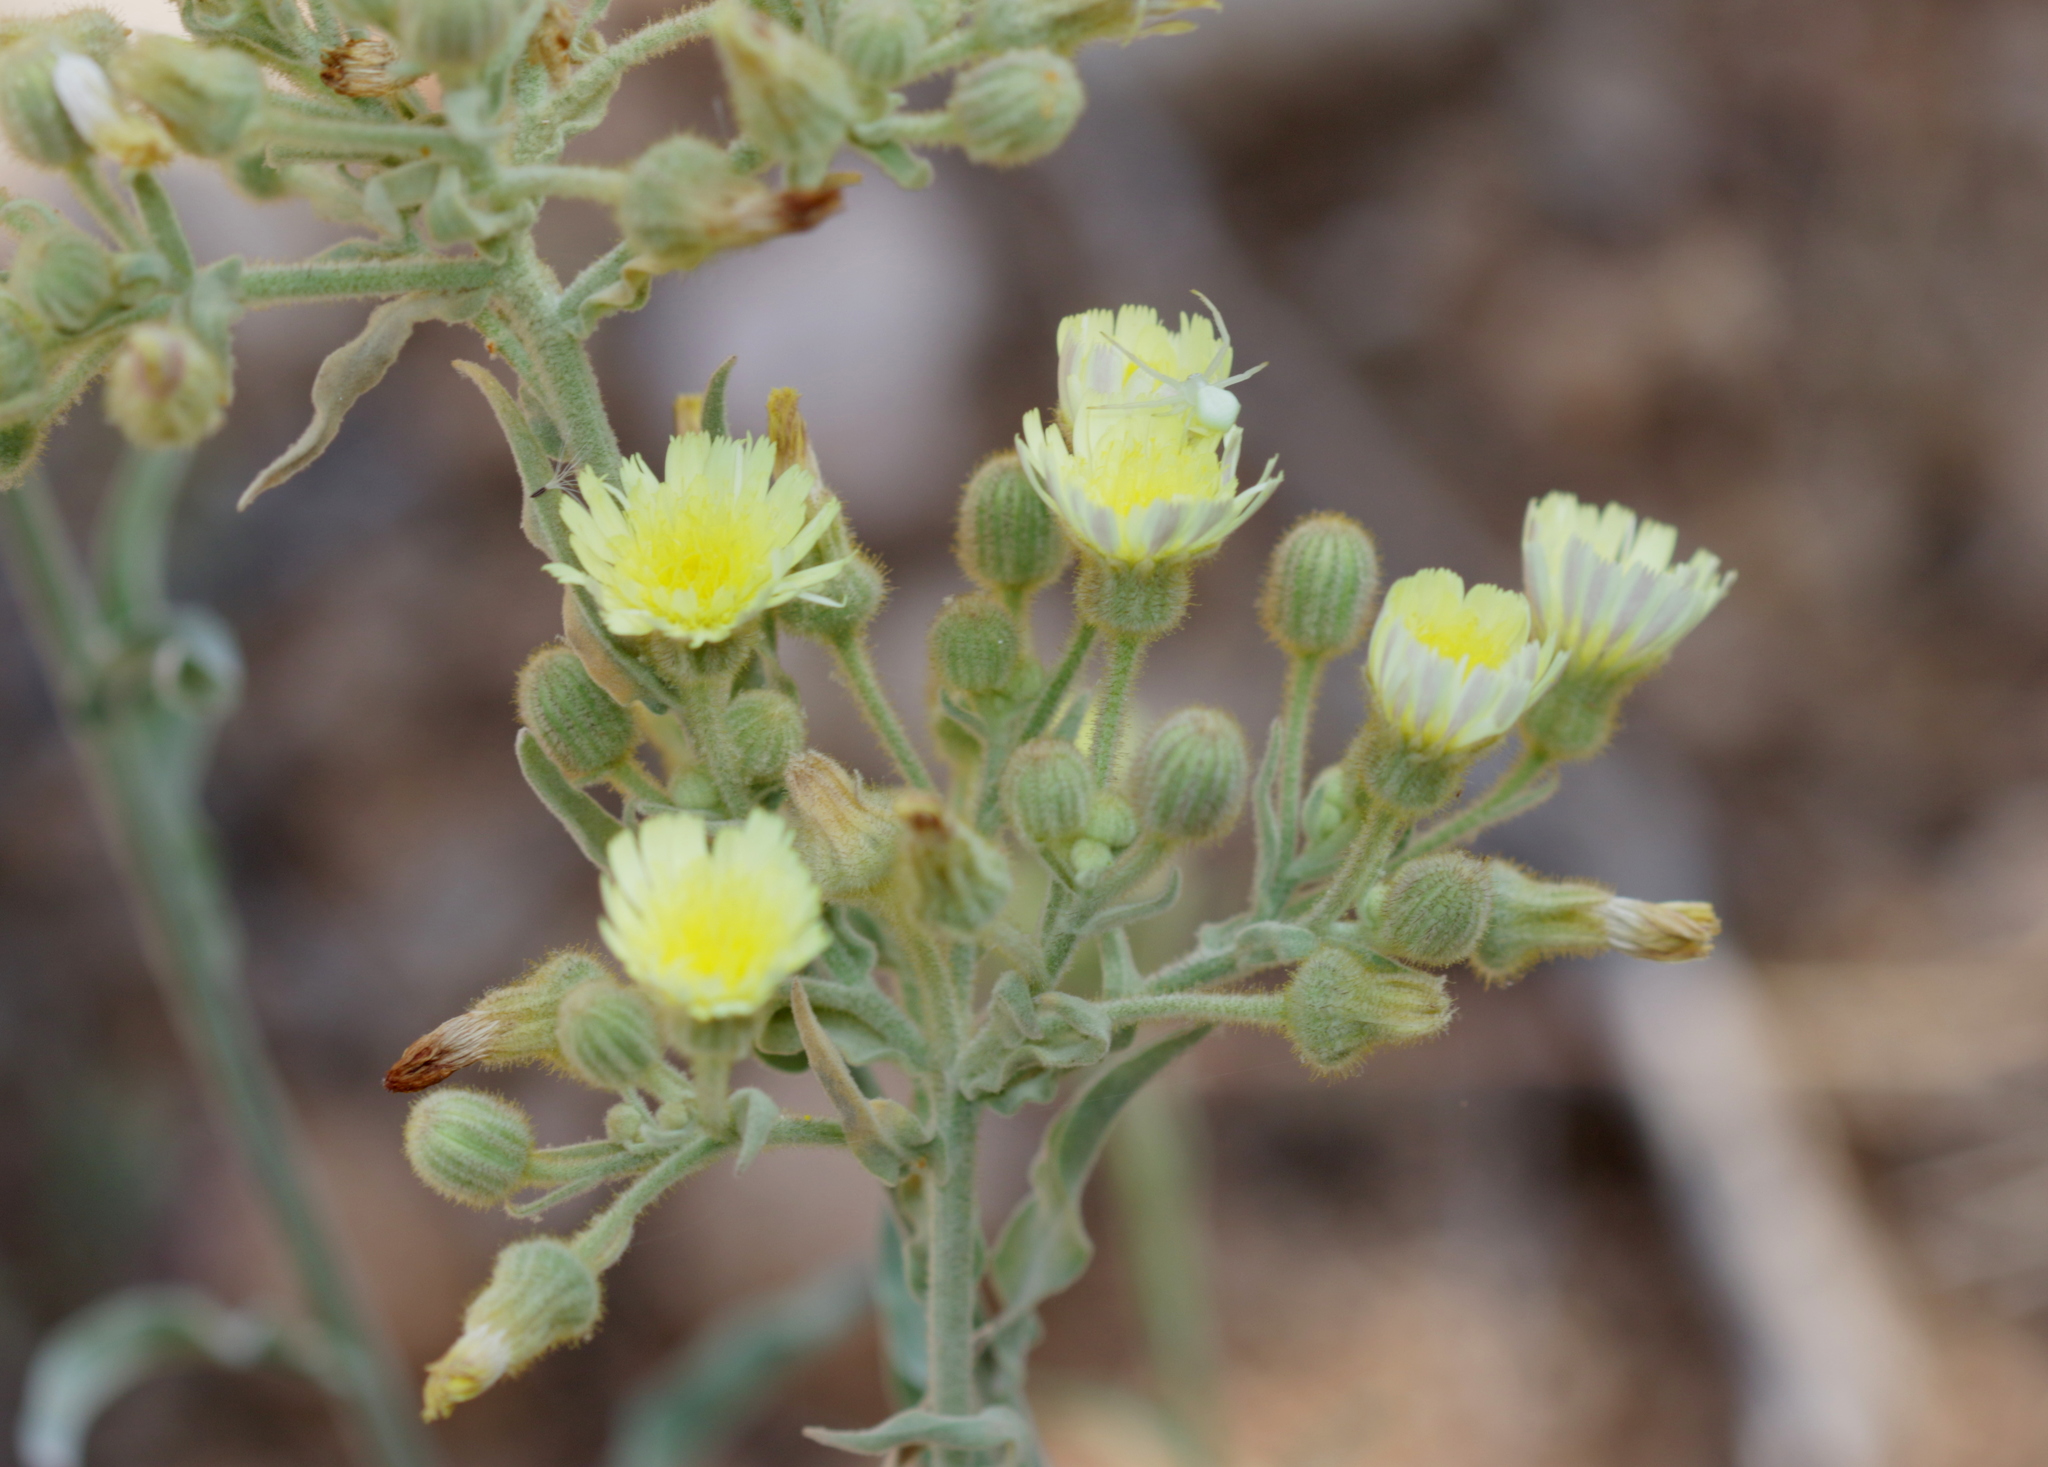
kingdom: Plantae
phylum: Tracheophyta
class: Magnoliopsida
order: Asterales
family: Asteraceae
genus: Andryala
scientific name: Andryala integrifolia
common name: Common andryala
